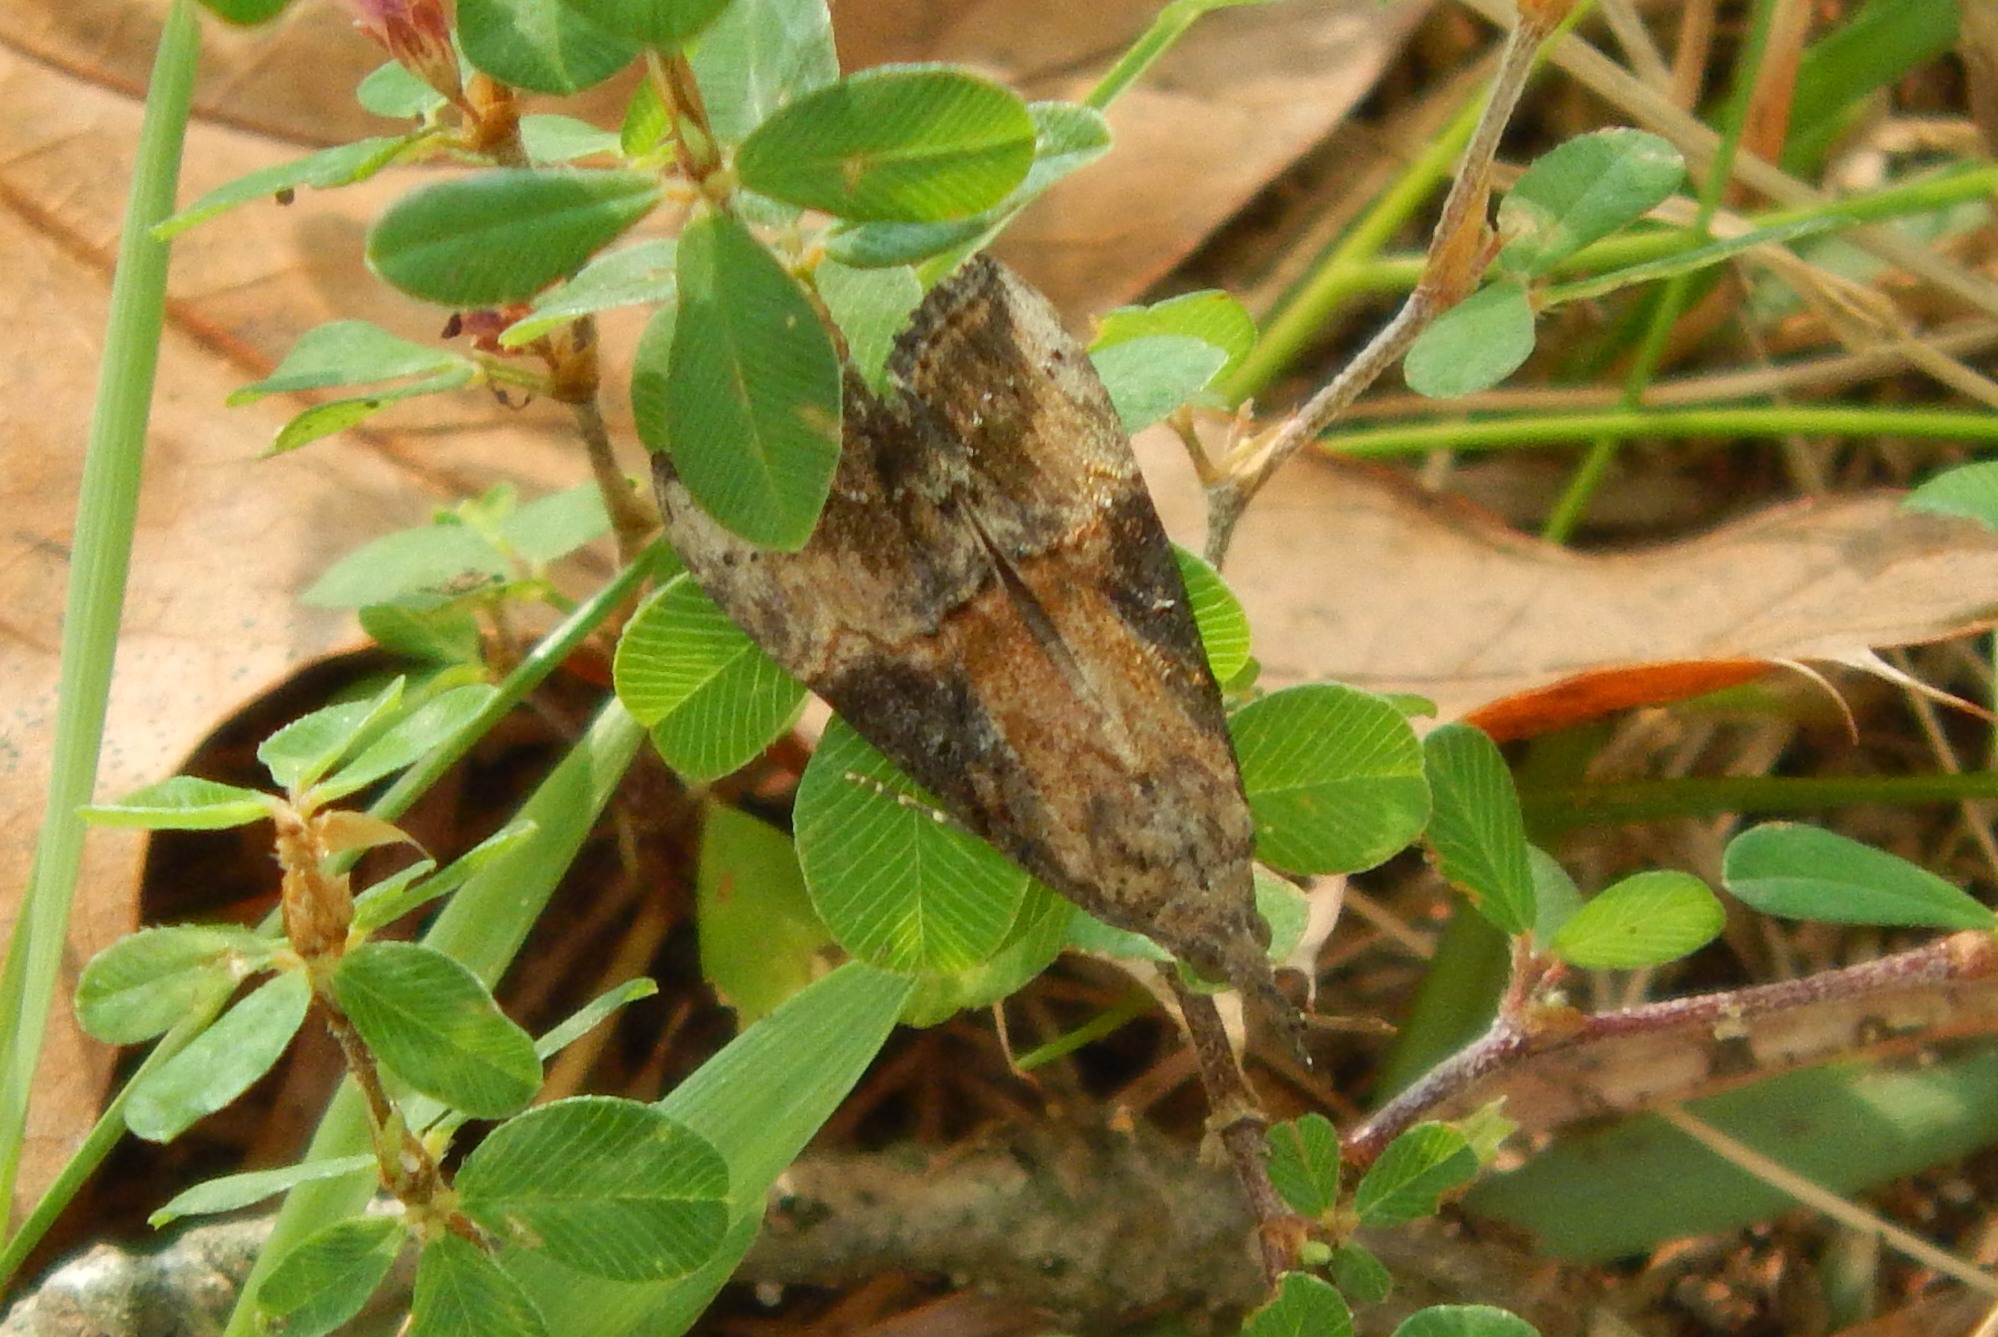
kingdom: Animalia
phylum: Arthropoda
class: Insecta
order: Lepidoptera
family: Erebidae
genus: Hypena
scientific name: Hypena scabra
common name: Green cloverworm
